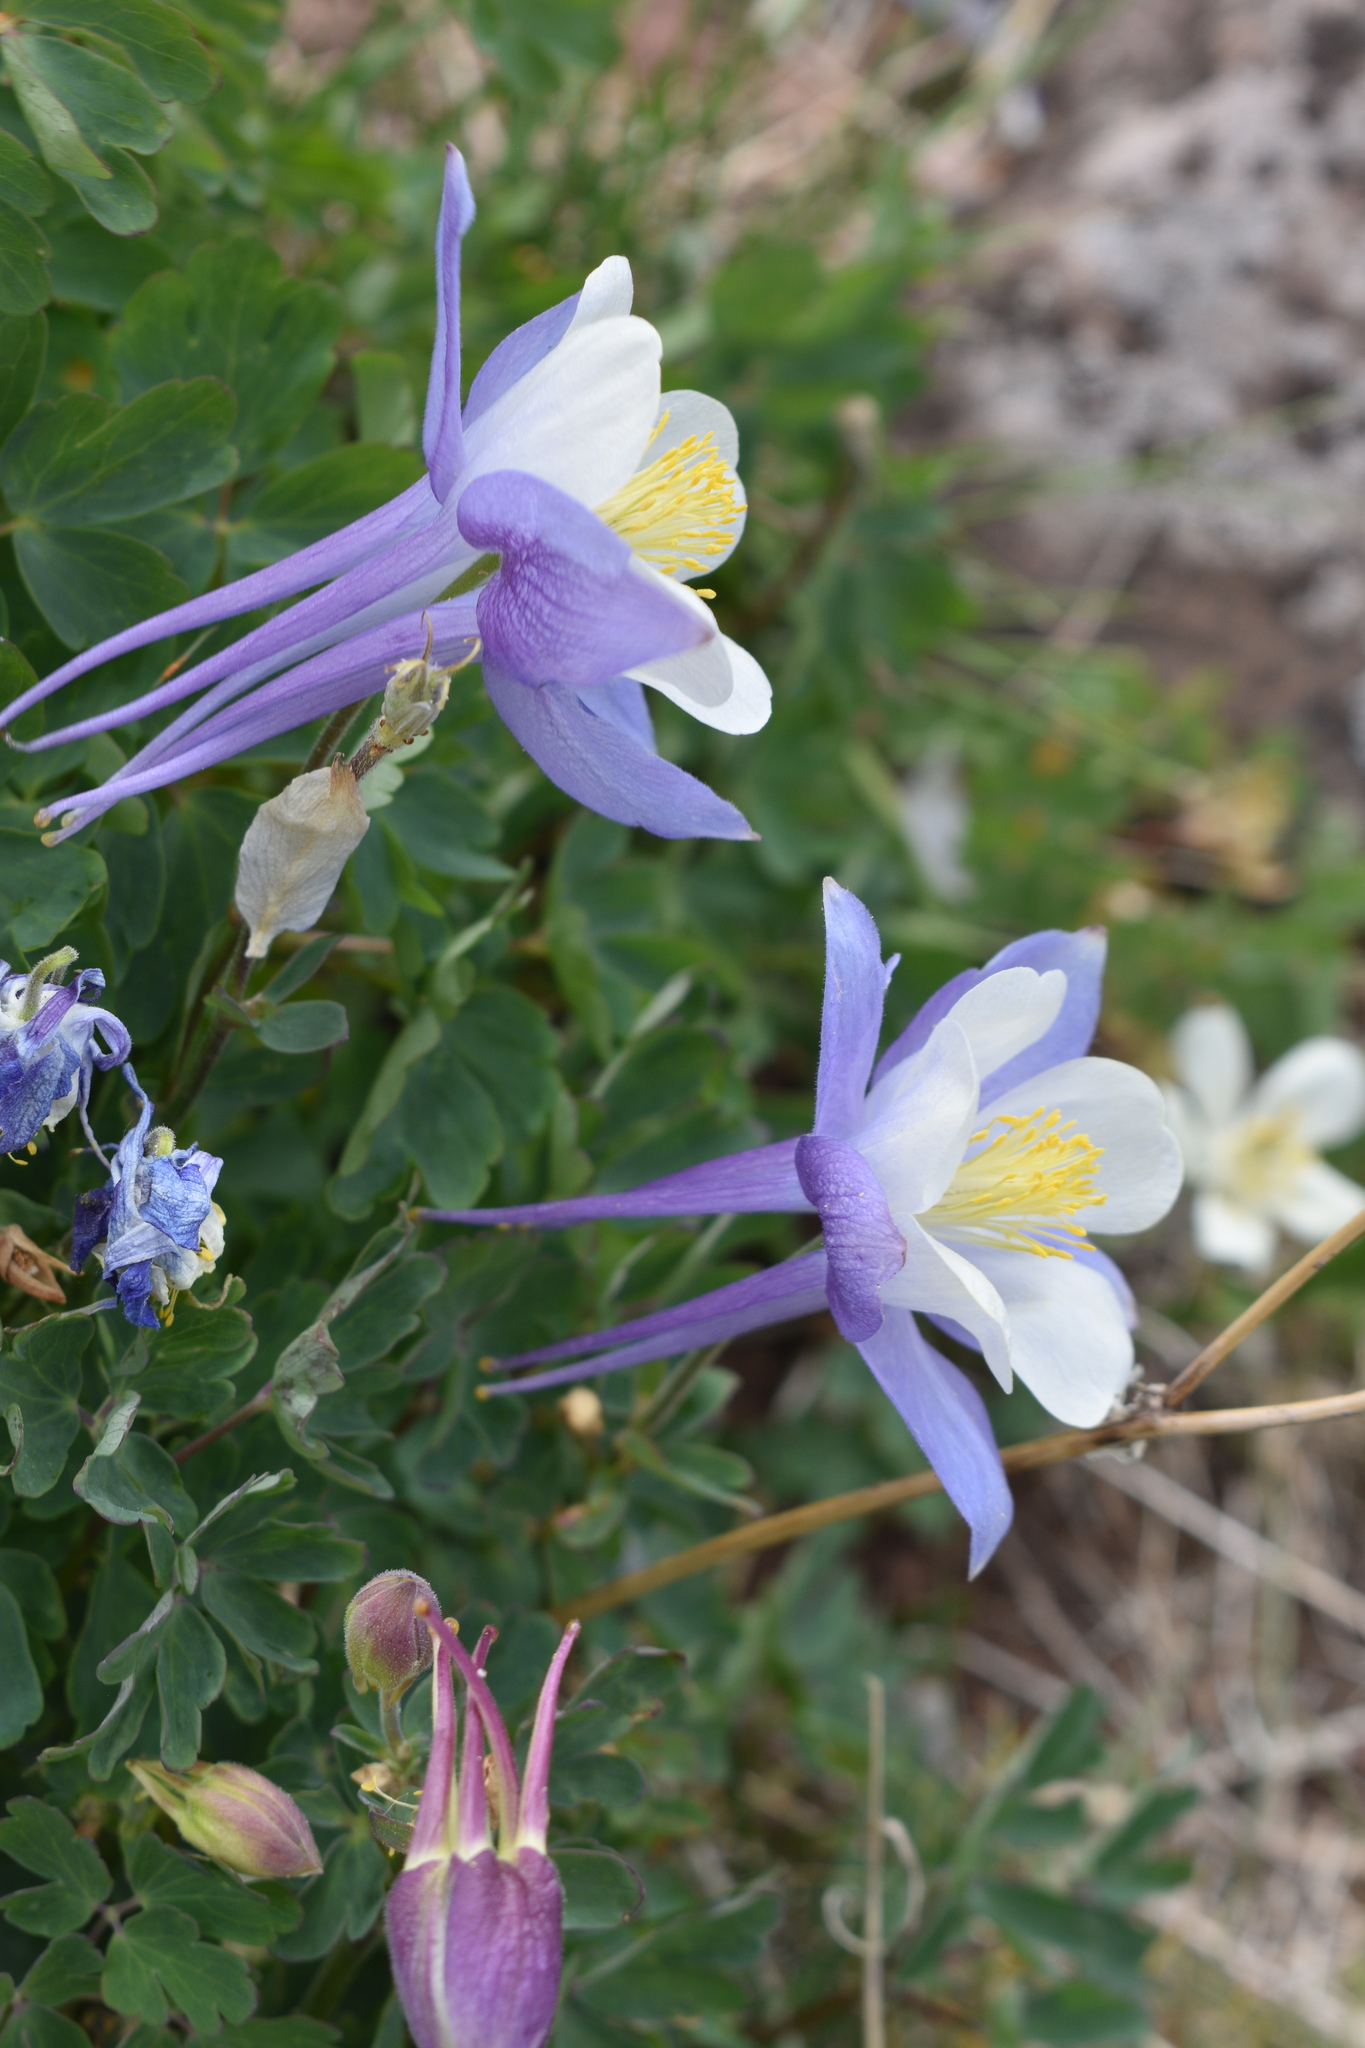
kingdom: Plantae
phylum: Tracheophyta
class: Magnoliopsida
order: Ranunculales
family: Ranunculaceae
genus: Aquilegia
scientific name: Aquilegia coerulea
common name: Rocky mountain columbine
